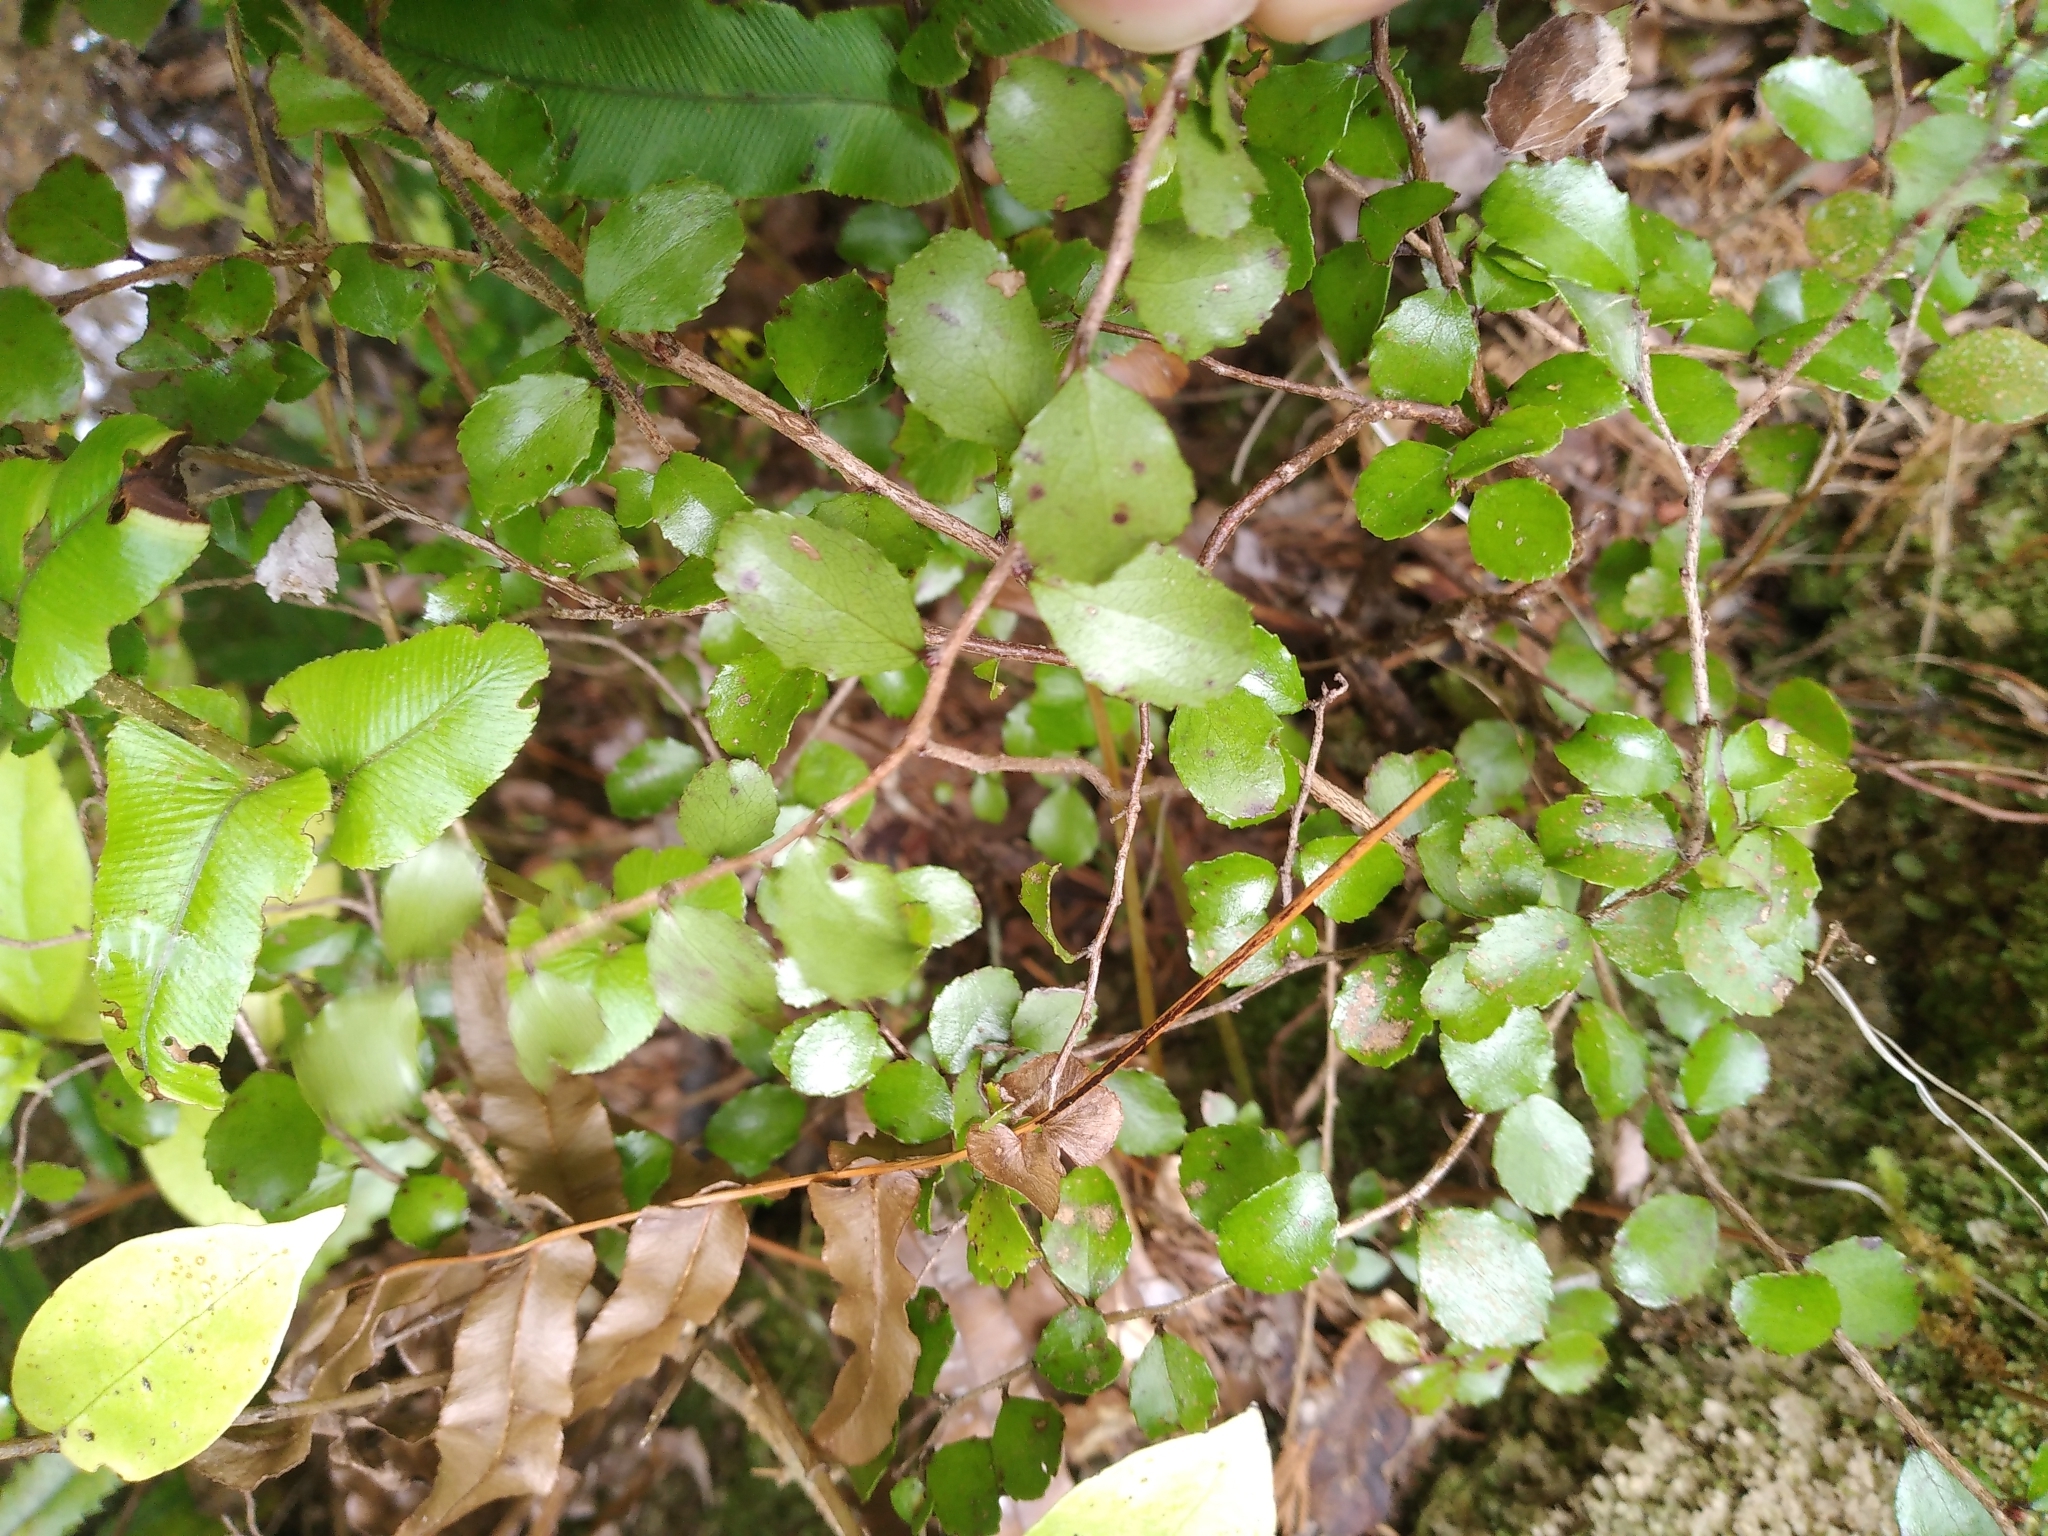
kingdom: Plantae
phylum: Tracheophyta
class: Magnoliopsida
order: Ericales
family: Ericaceae
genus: Gaultheria
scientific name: Gaultheria antipoda
